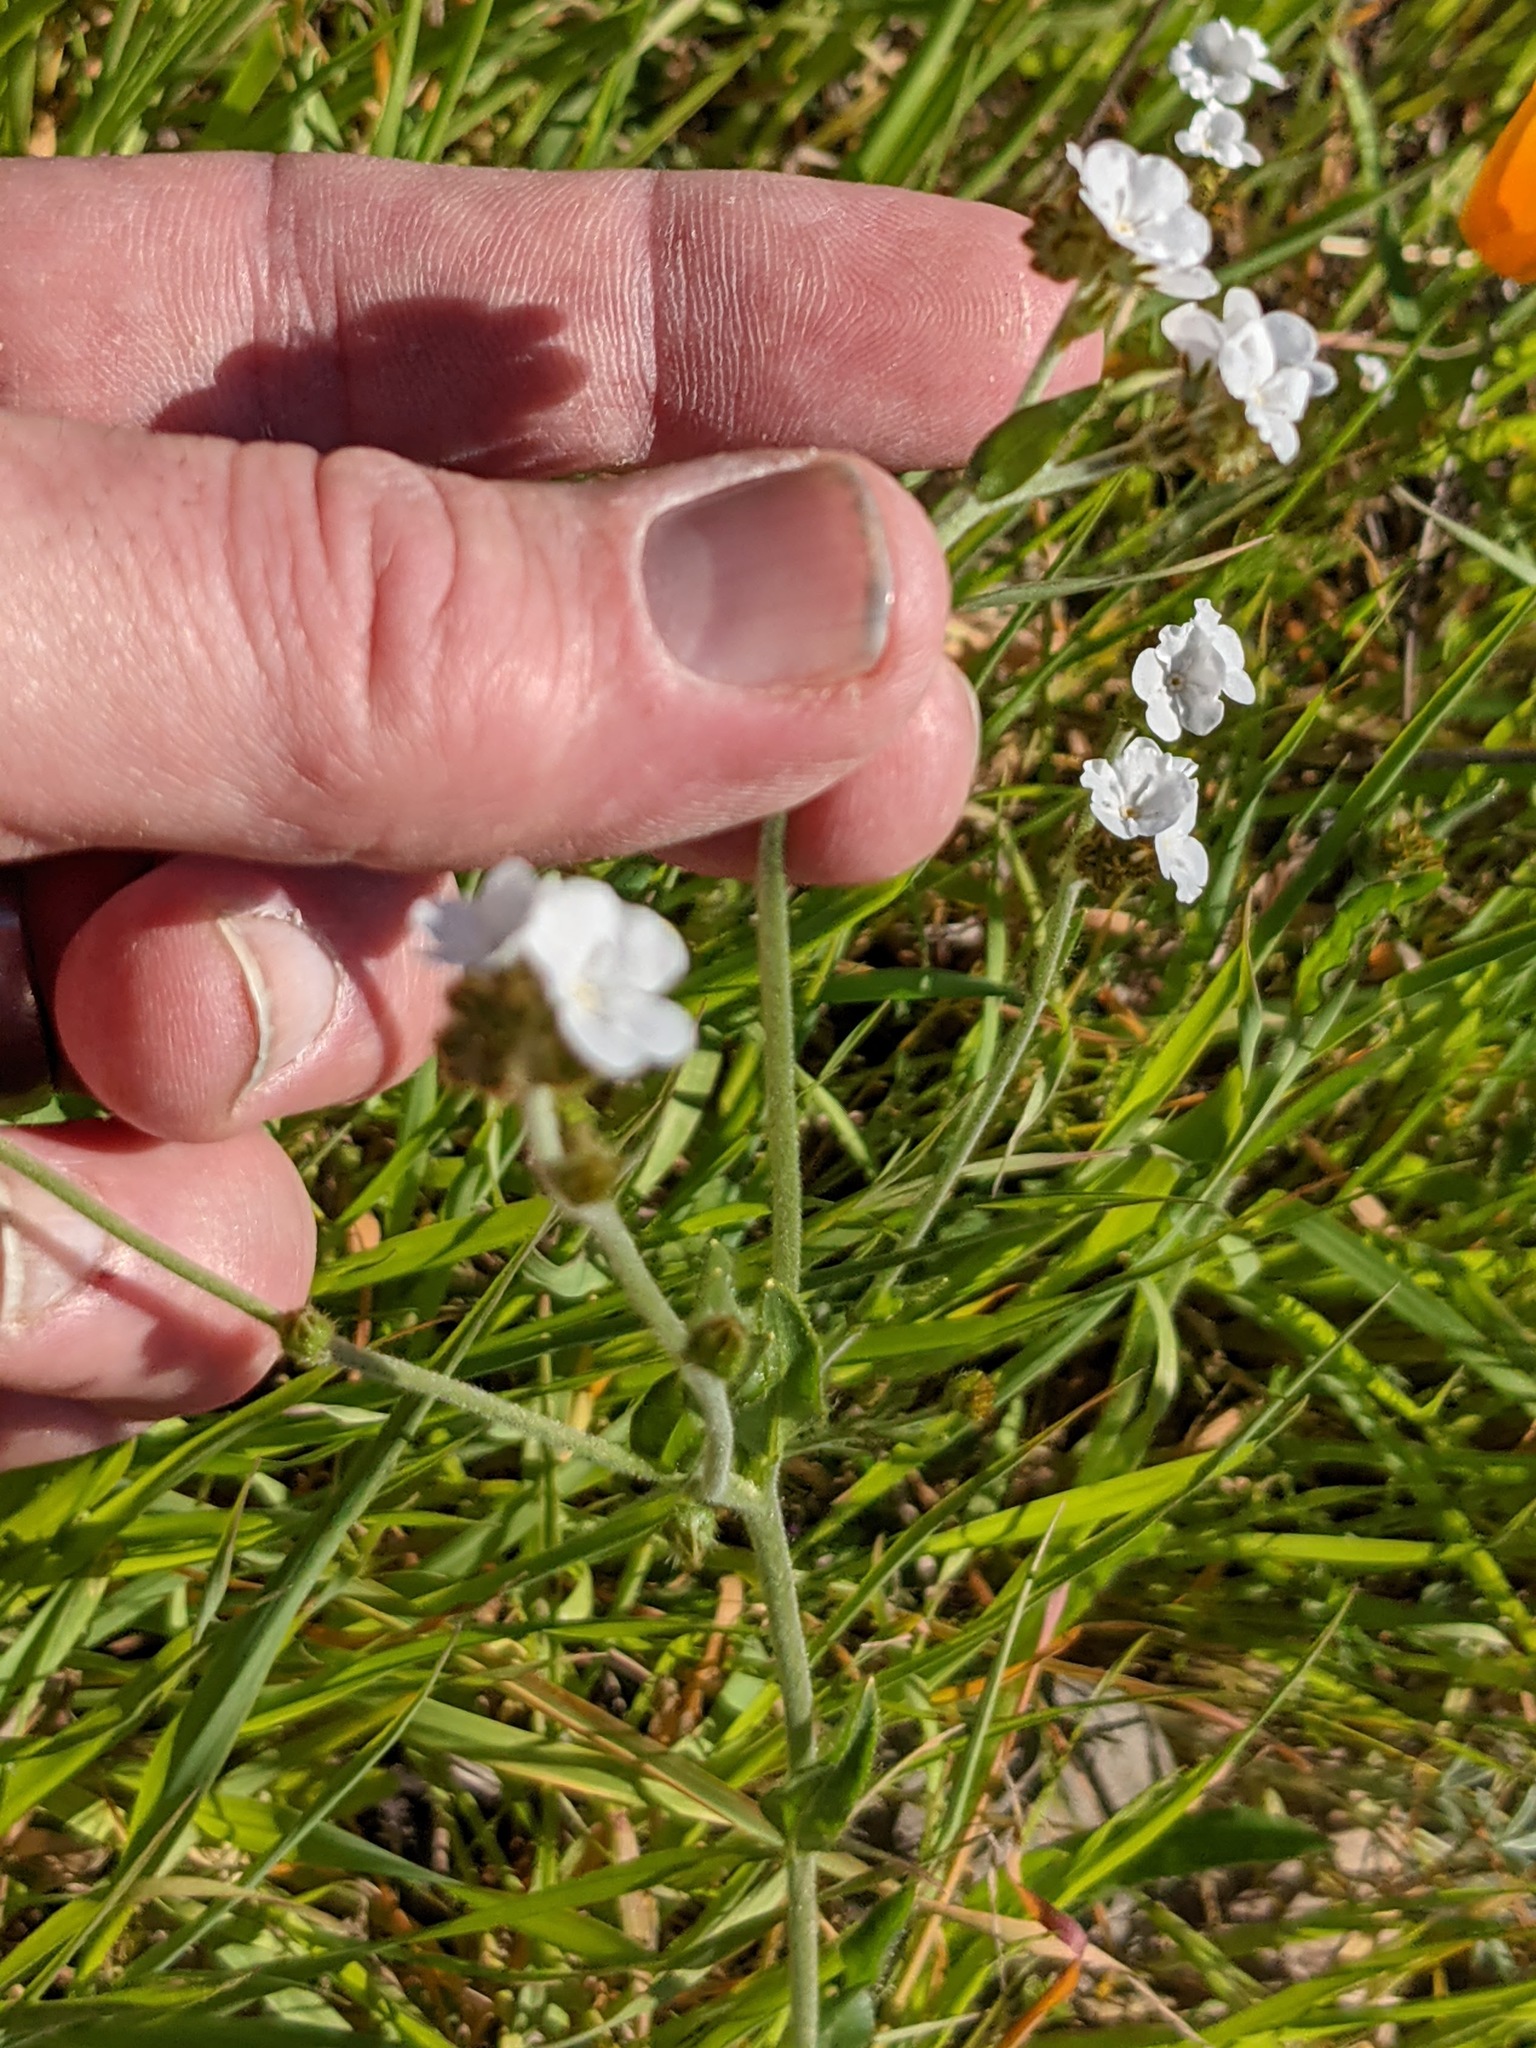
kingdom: Plantae
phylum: Tracheophyta
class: Magnoliopsida
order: Boraginales
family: Boraginaceae
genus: Plagiobothrys
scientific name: Plagiobothrys nothofulvus
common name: Popcorn-flower
